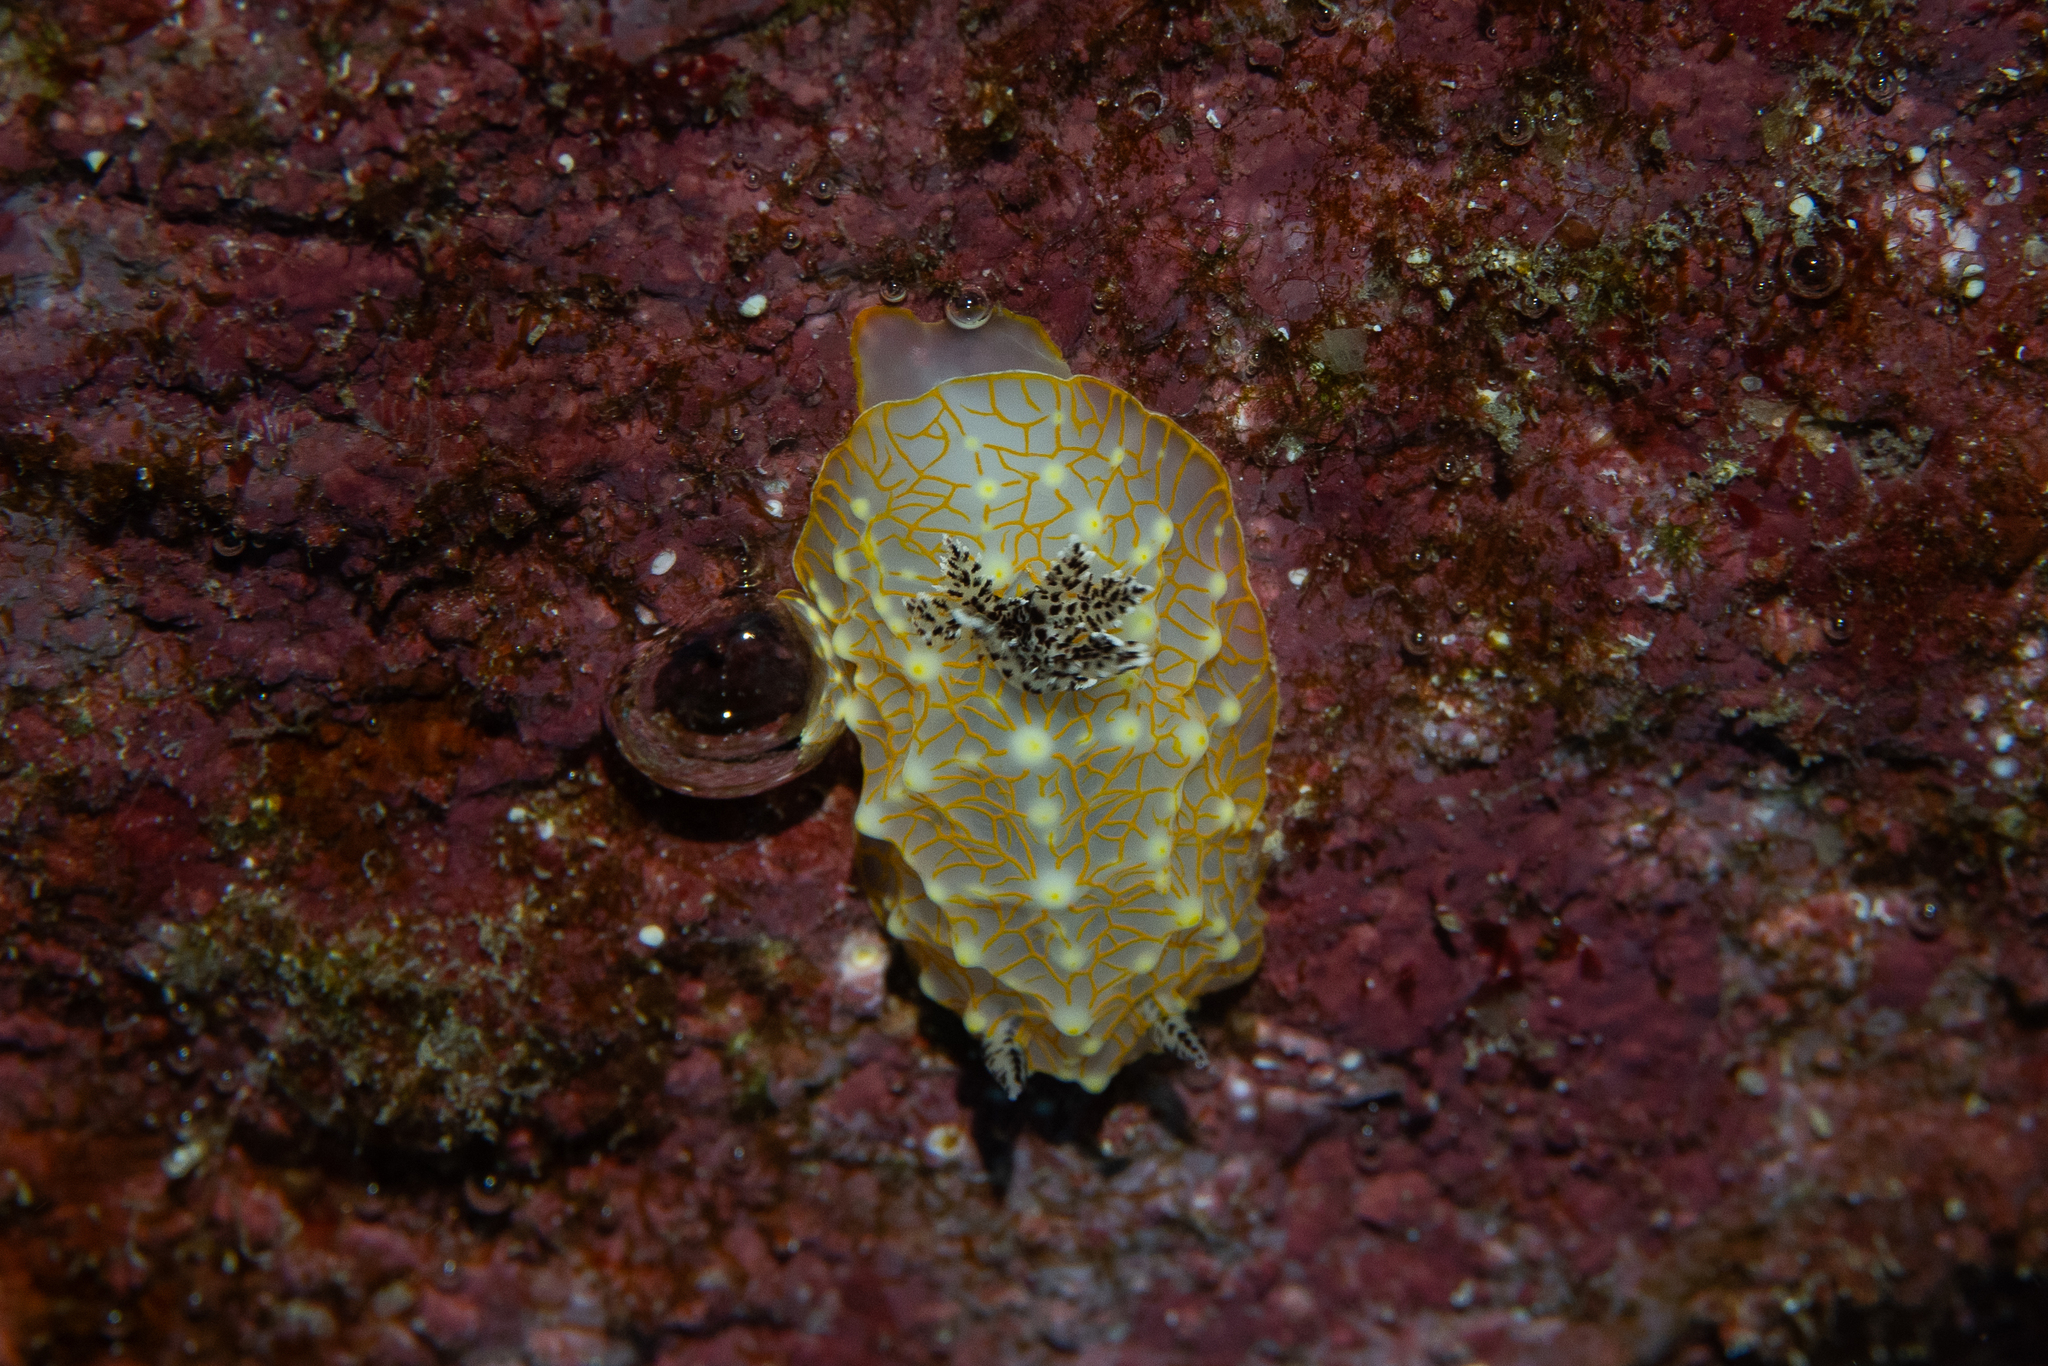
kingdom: Animalia
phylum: Mollusca
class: Gastropoda
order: Nudibranchia
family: Discodorididae
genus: Halgerda
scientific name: Halgerda terramtuentis
